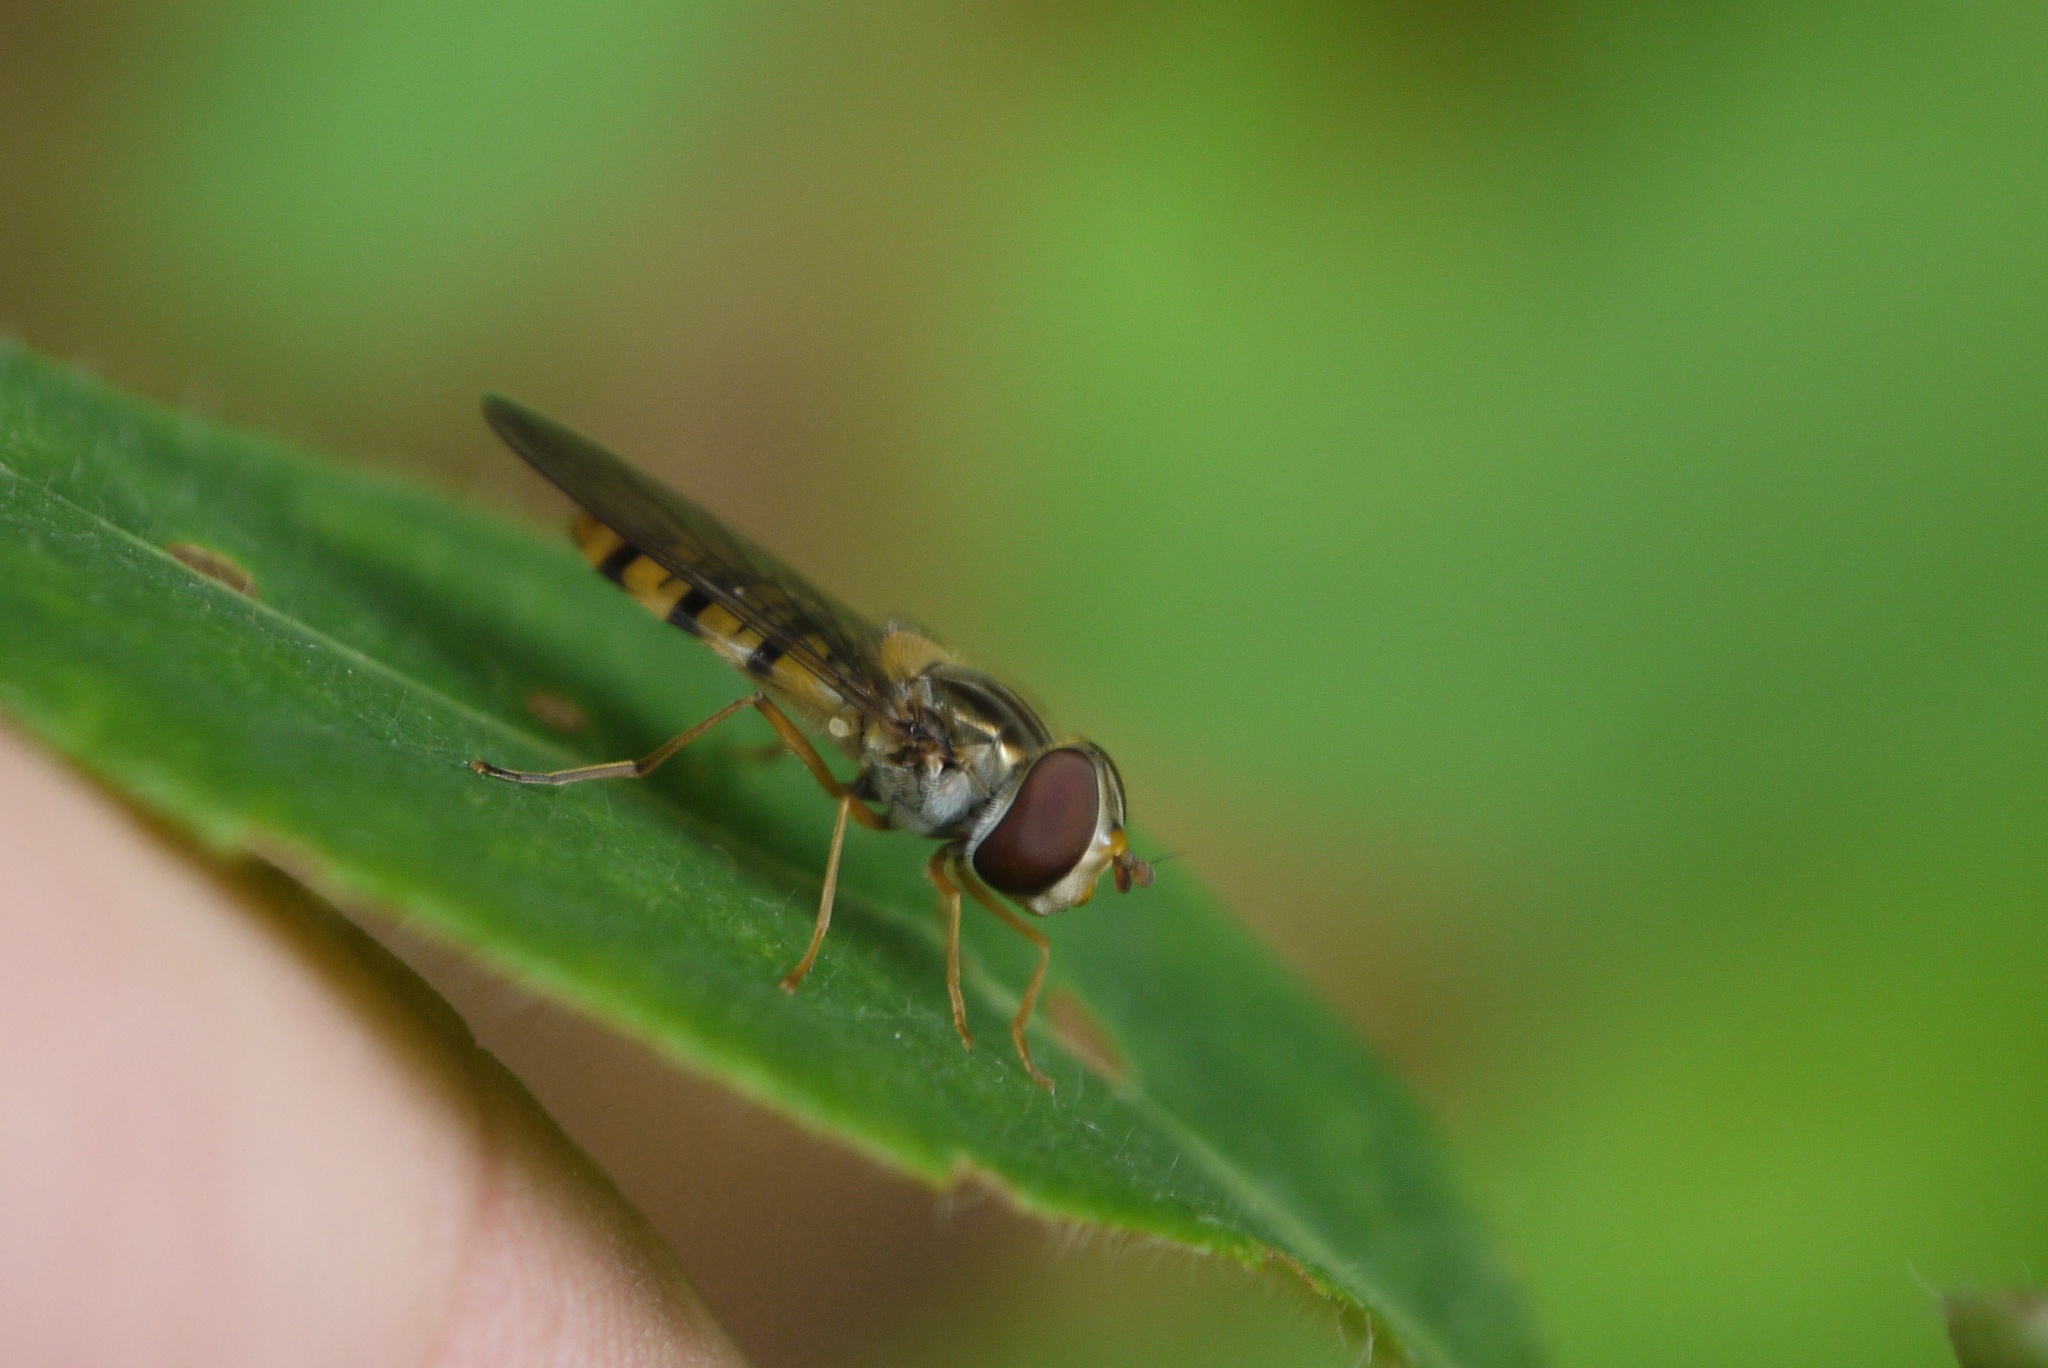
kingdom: Animalia
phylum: Arthropoda
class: Insecta
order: Diptera
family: Syrphidae
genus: Episyrphus
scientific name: Episyrphus balteatus
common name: Marmalade hoverfly
